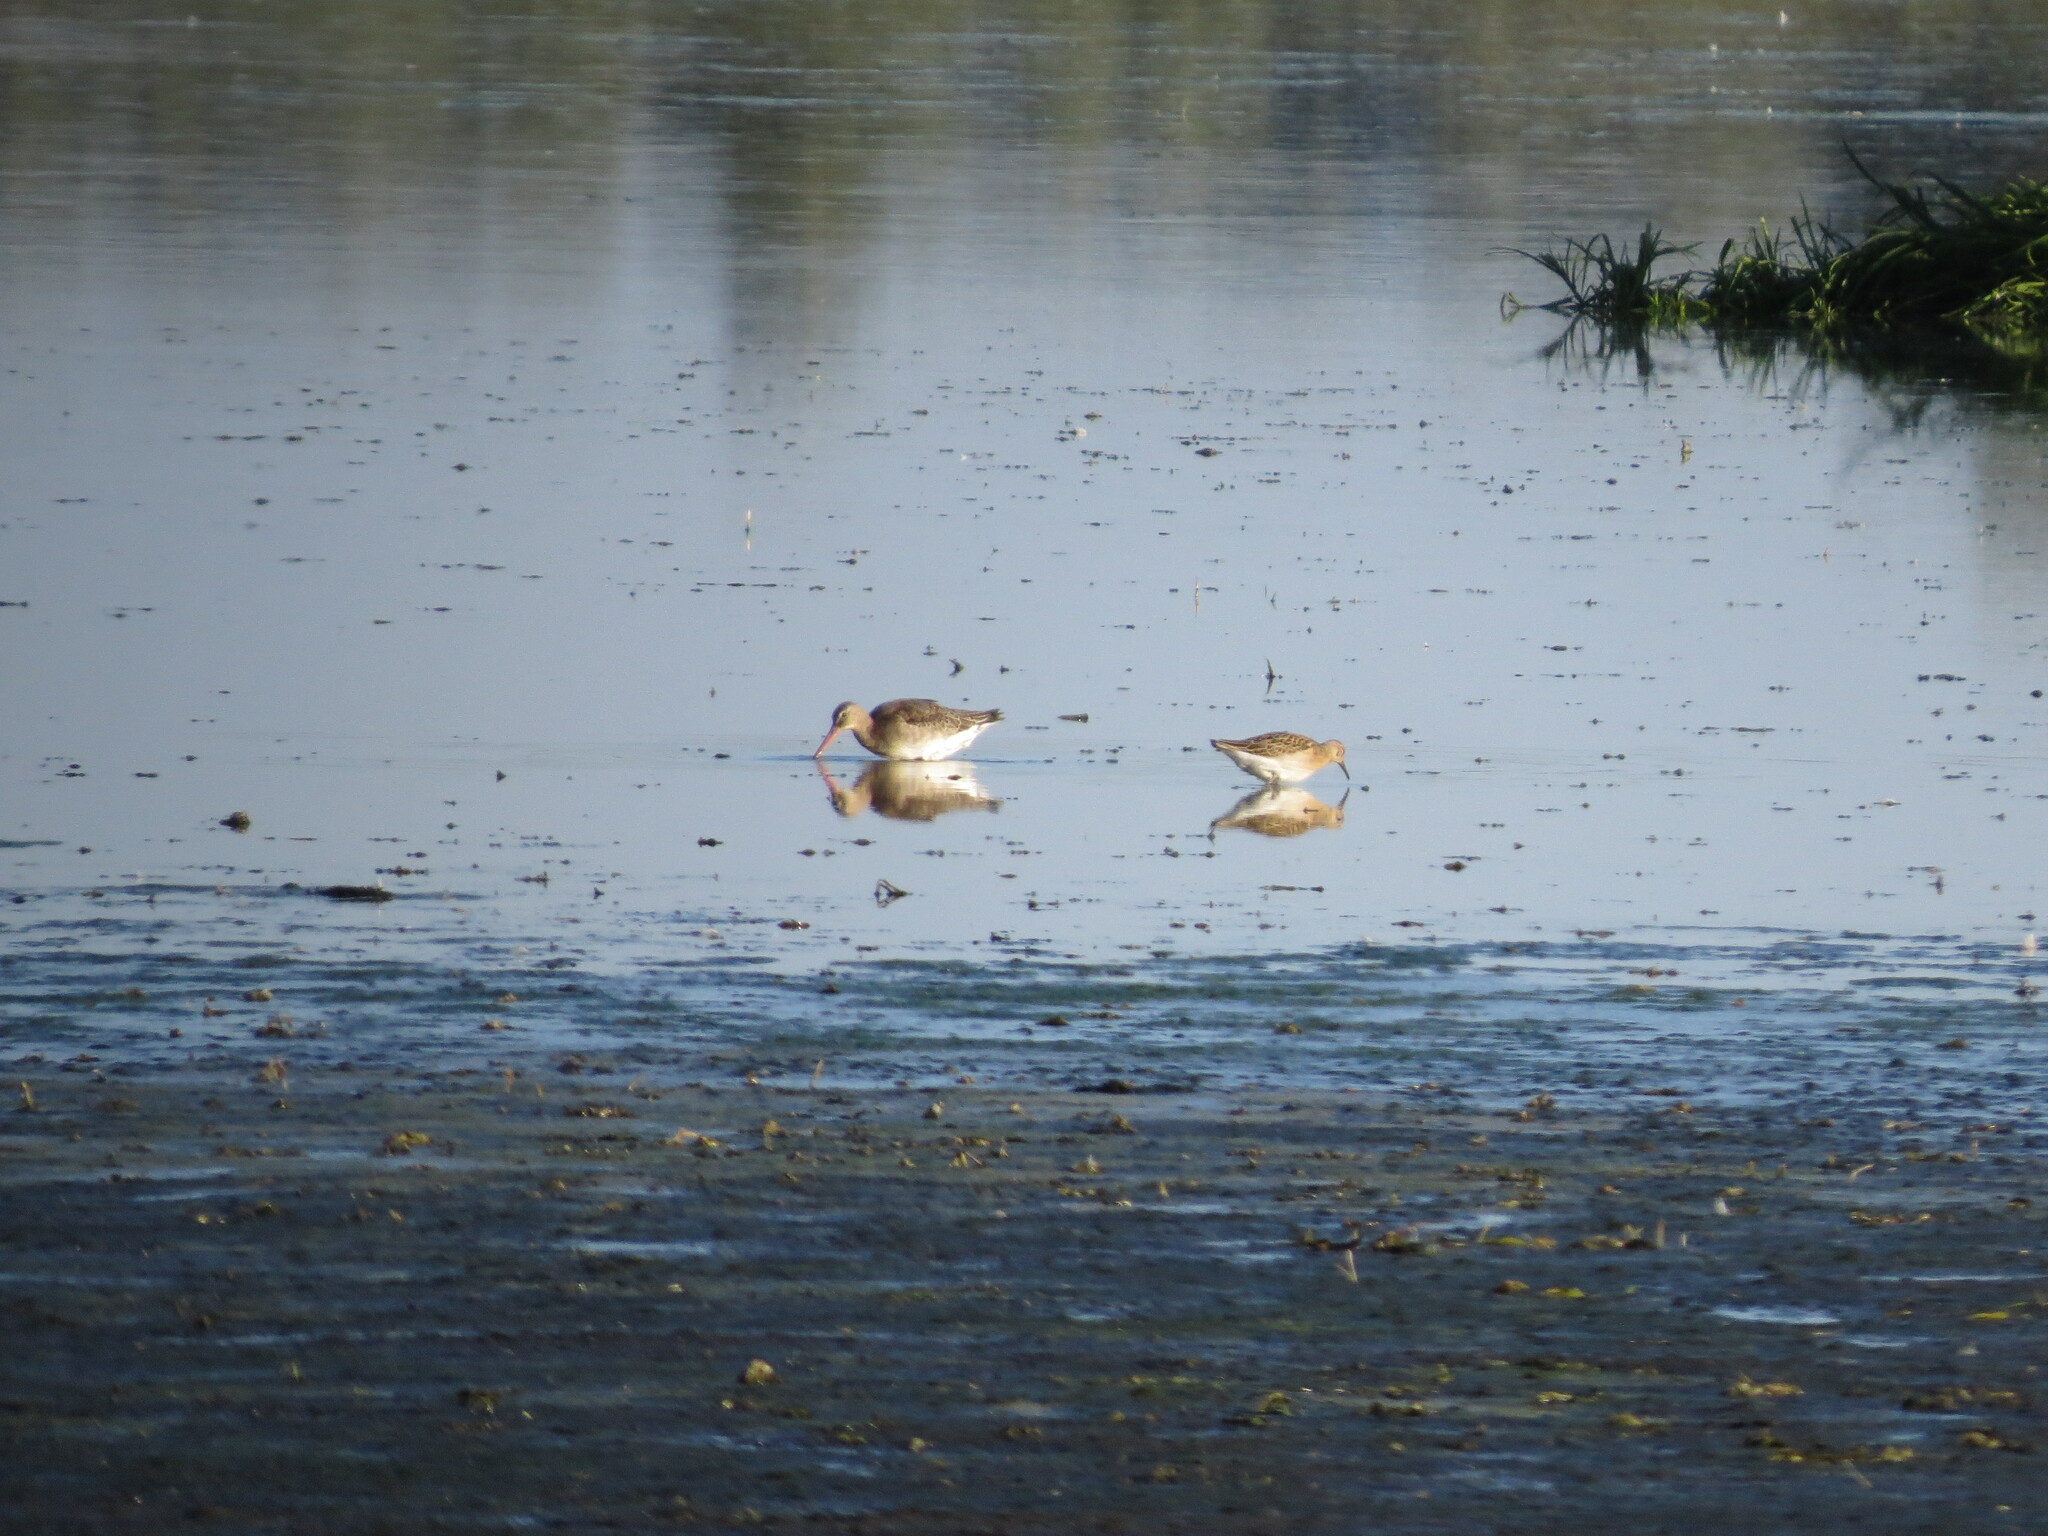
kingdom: Animalia
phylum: Chordata
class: Aves
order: Charadriiformes
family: Scolopacidae
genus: Limosa
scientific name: Limosa limosa
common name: Black-tailed godwit
